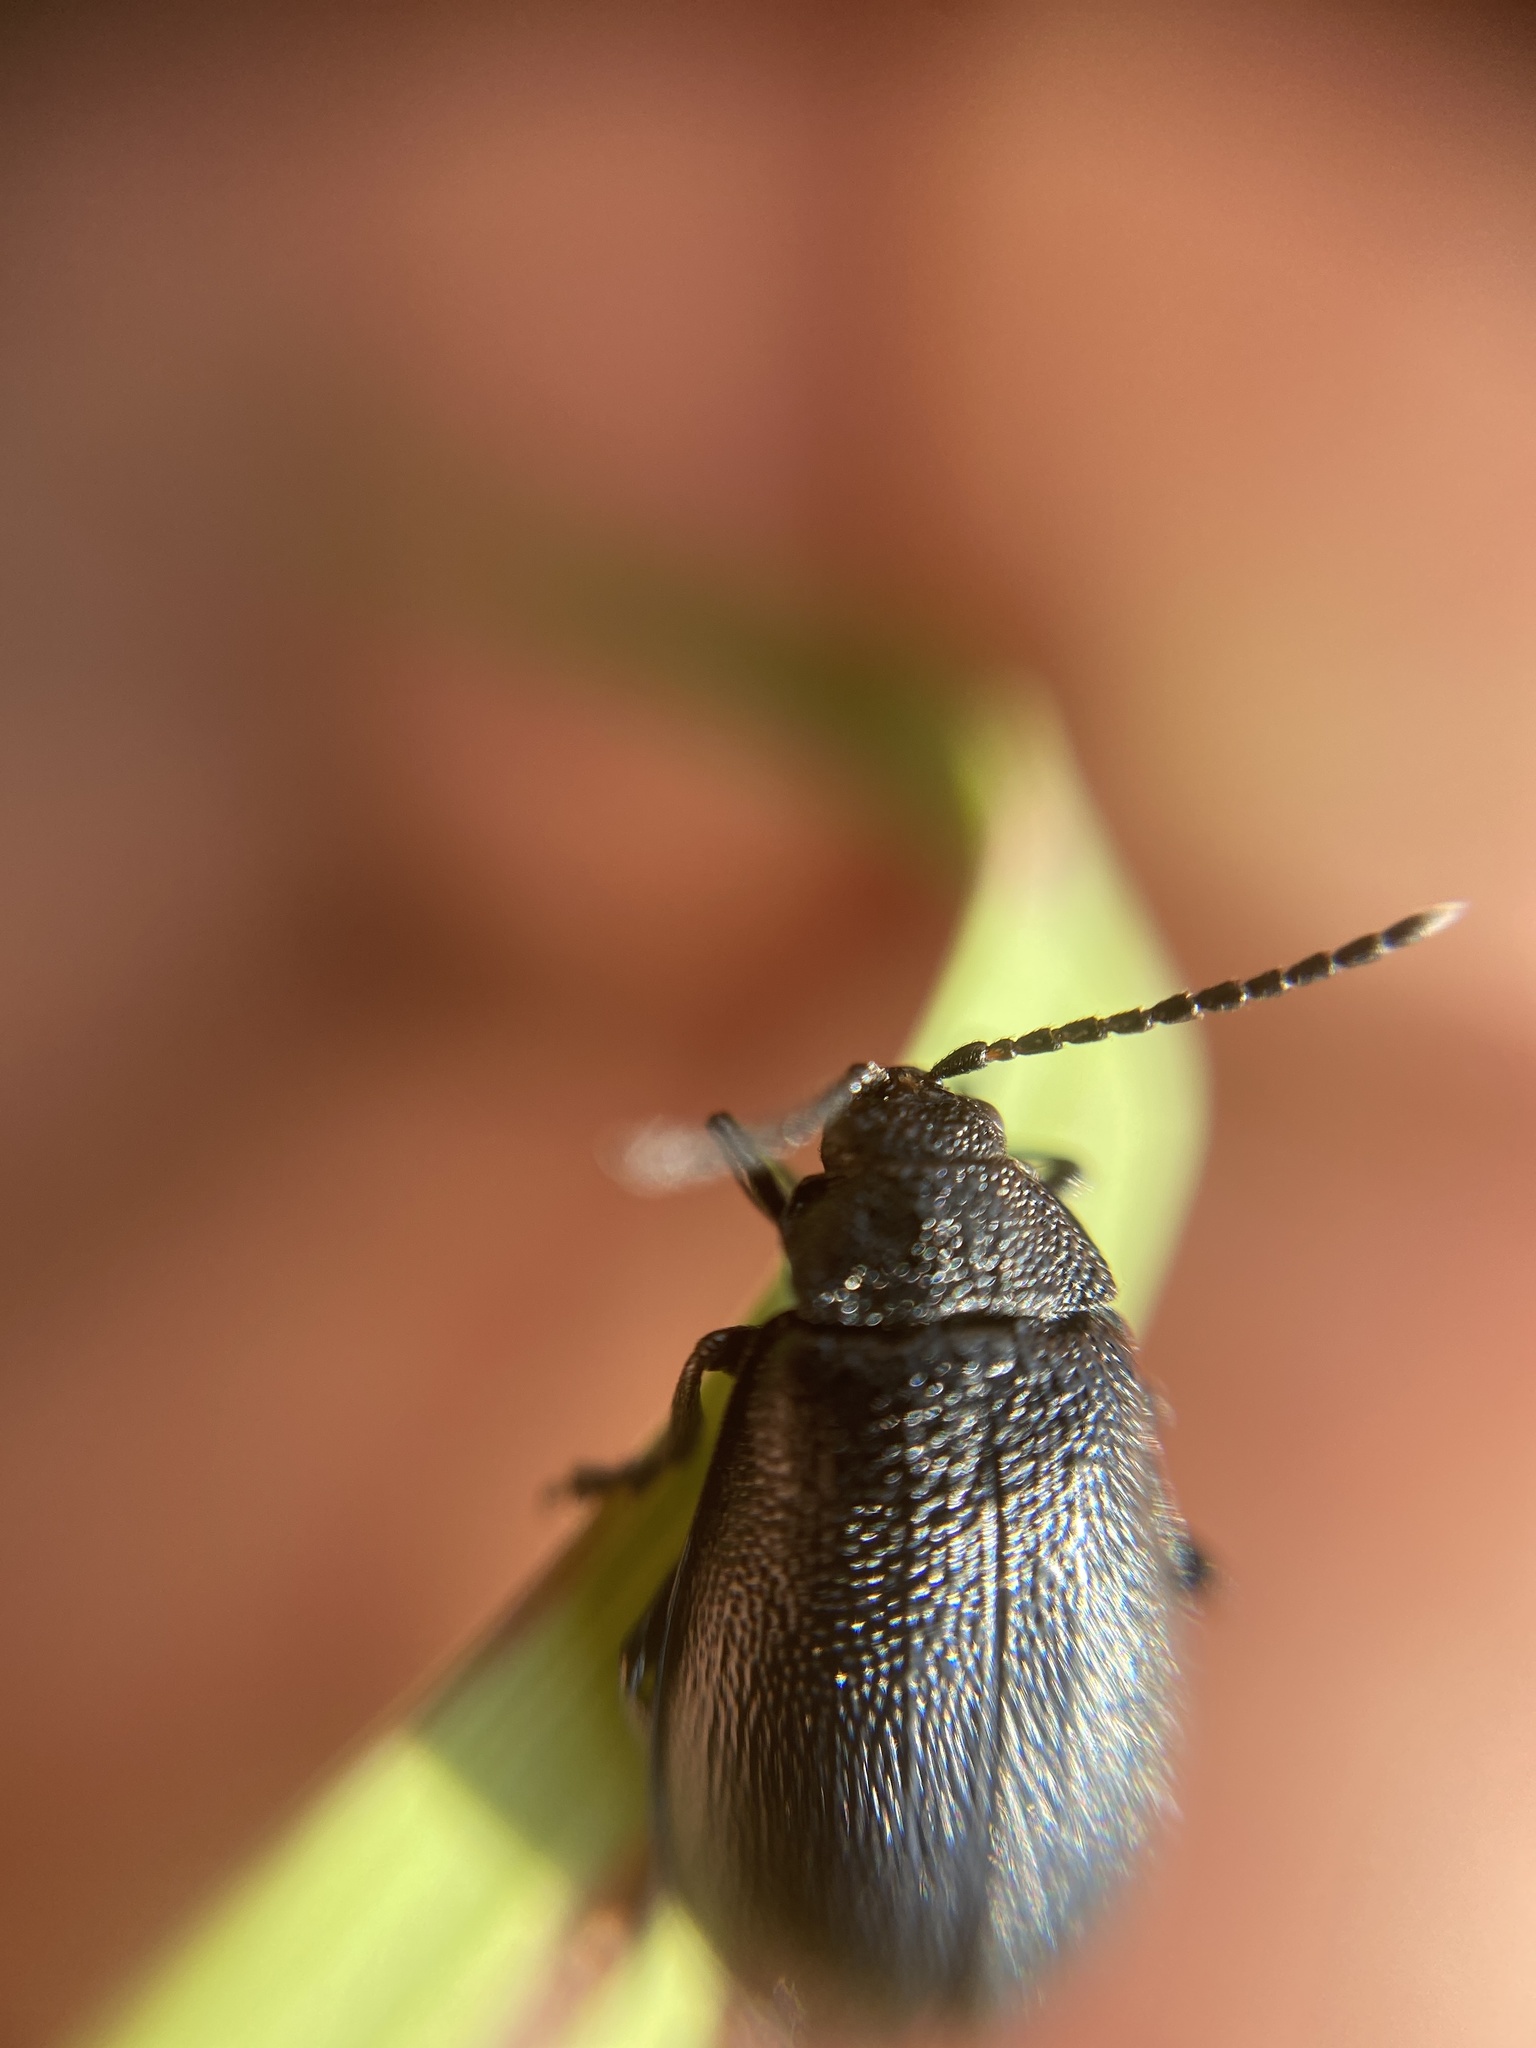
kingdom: Animalia
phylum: Arthropoda
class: Insecta
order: Coleoptera
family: Chrysomelidae
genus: Galeruca
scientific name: Galeruca tanaceti
